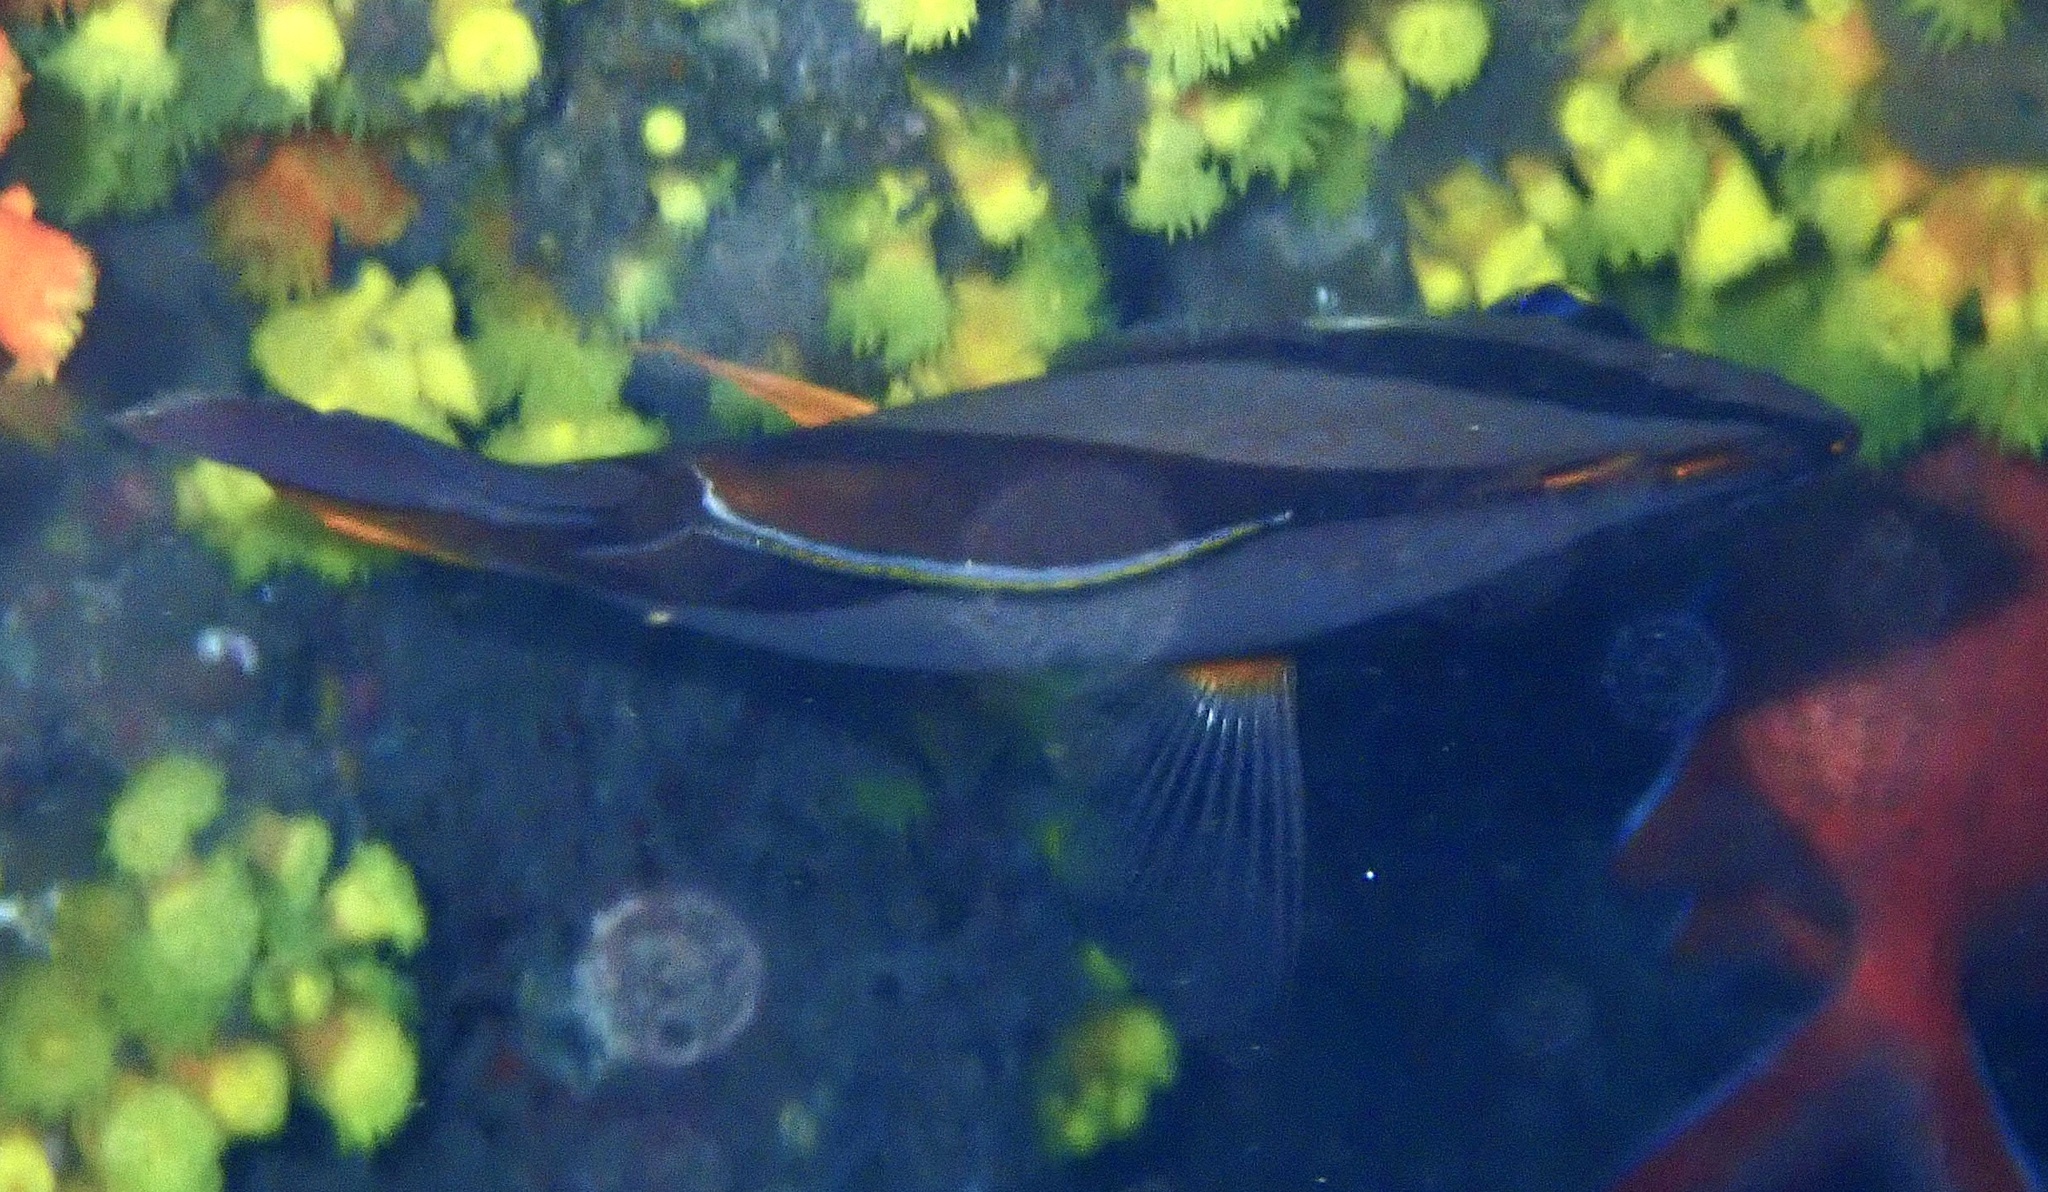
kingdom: Animalia
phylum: Chordata
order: Perciformes
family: Chaetodontidae
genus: Chaetodon
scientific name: Chaetodon robustus
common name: Three-banded butterflyfish
